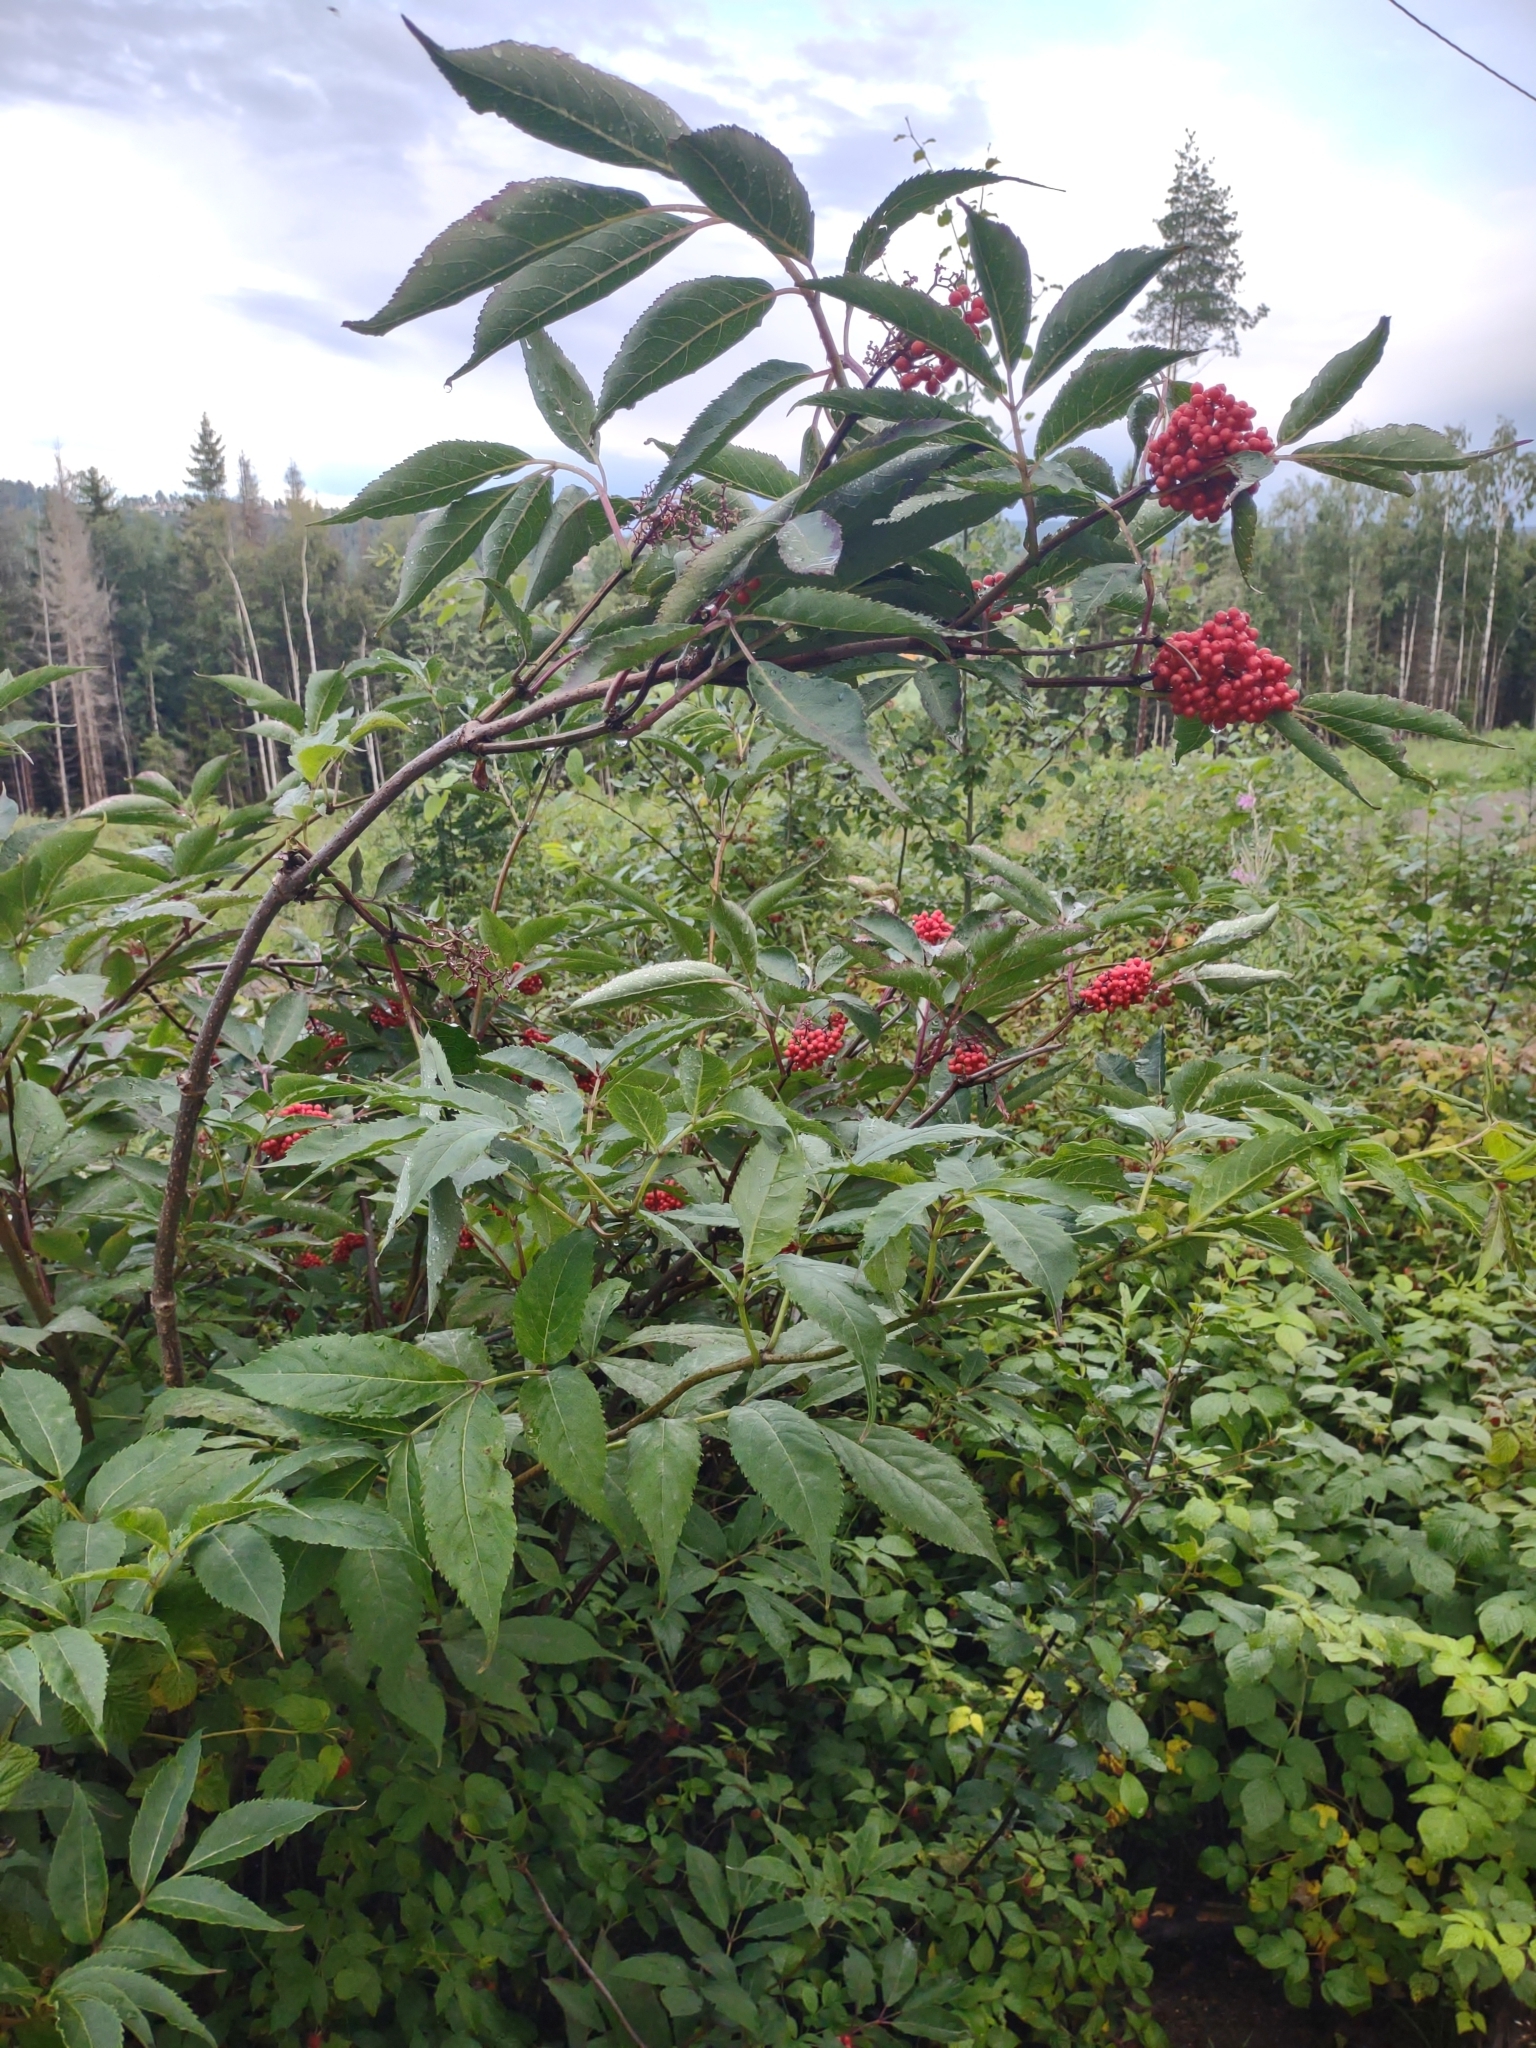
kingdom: Plantae
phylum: Tracheophyta
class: Magnoliopsida
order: Dipsacales
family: Viburnaceae
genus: Sambucus
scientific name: Sambucus racemosa
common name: Red-berried elder
